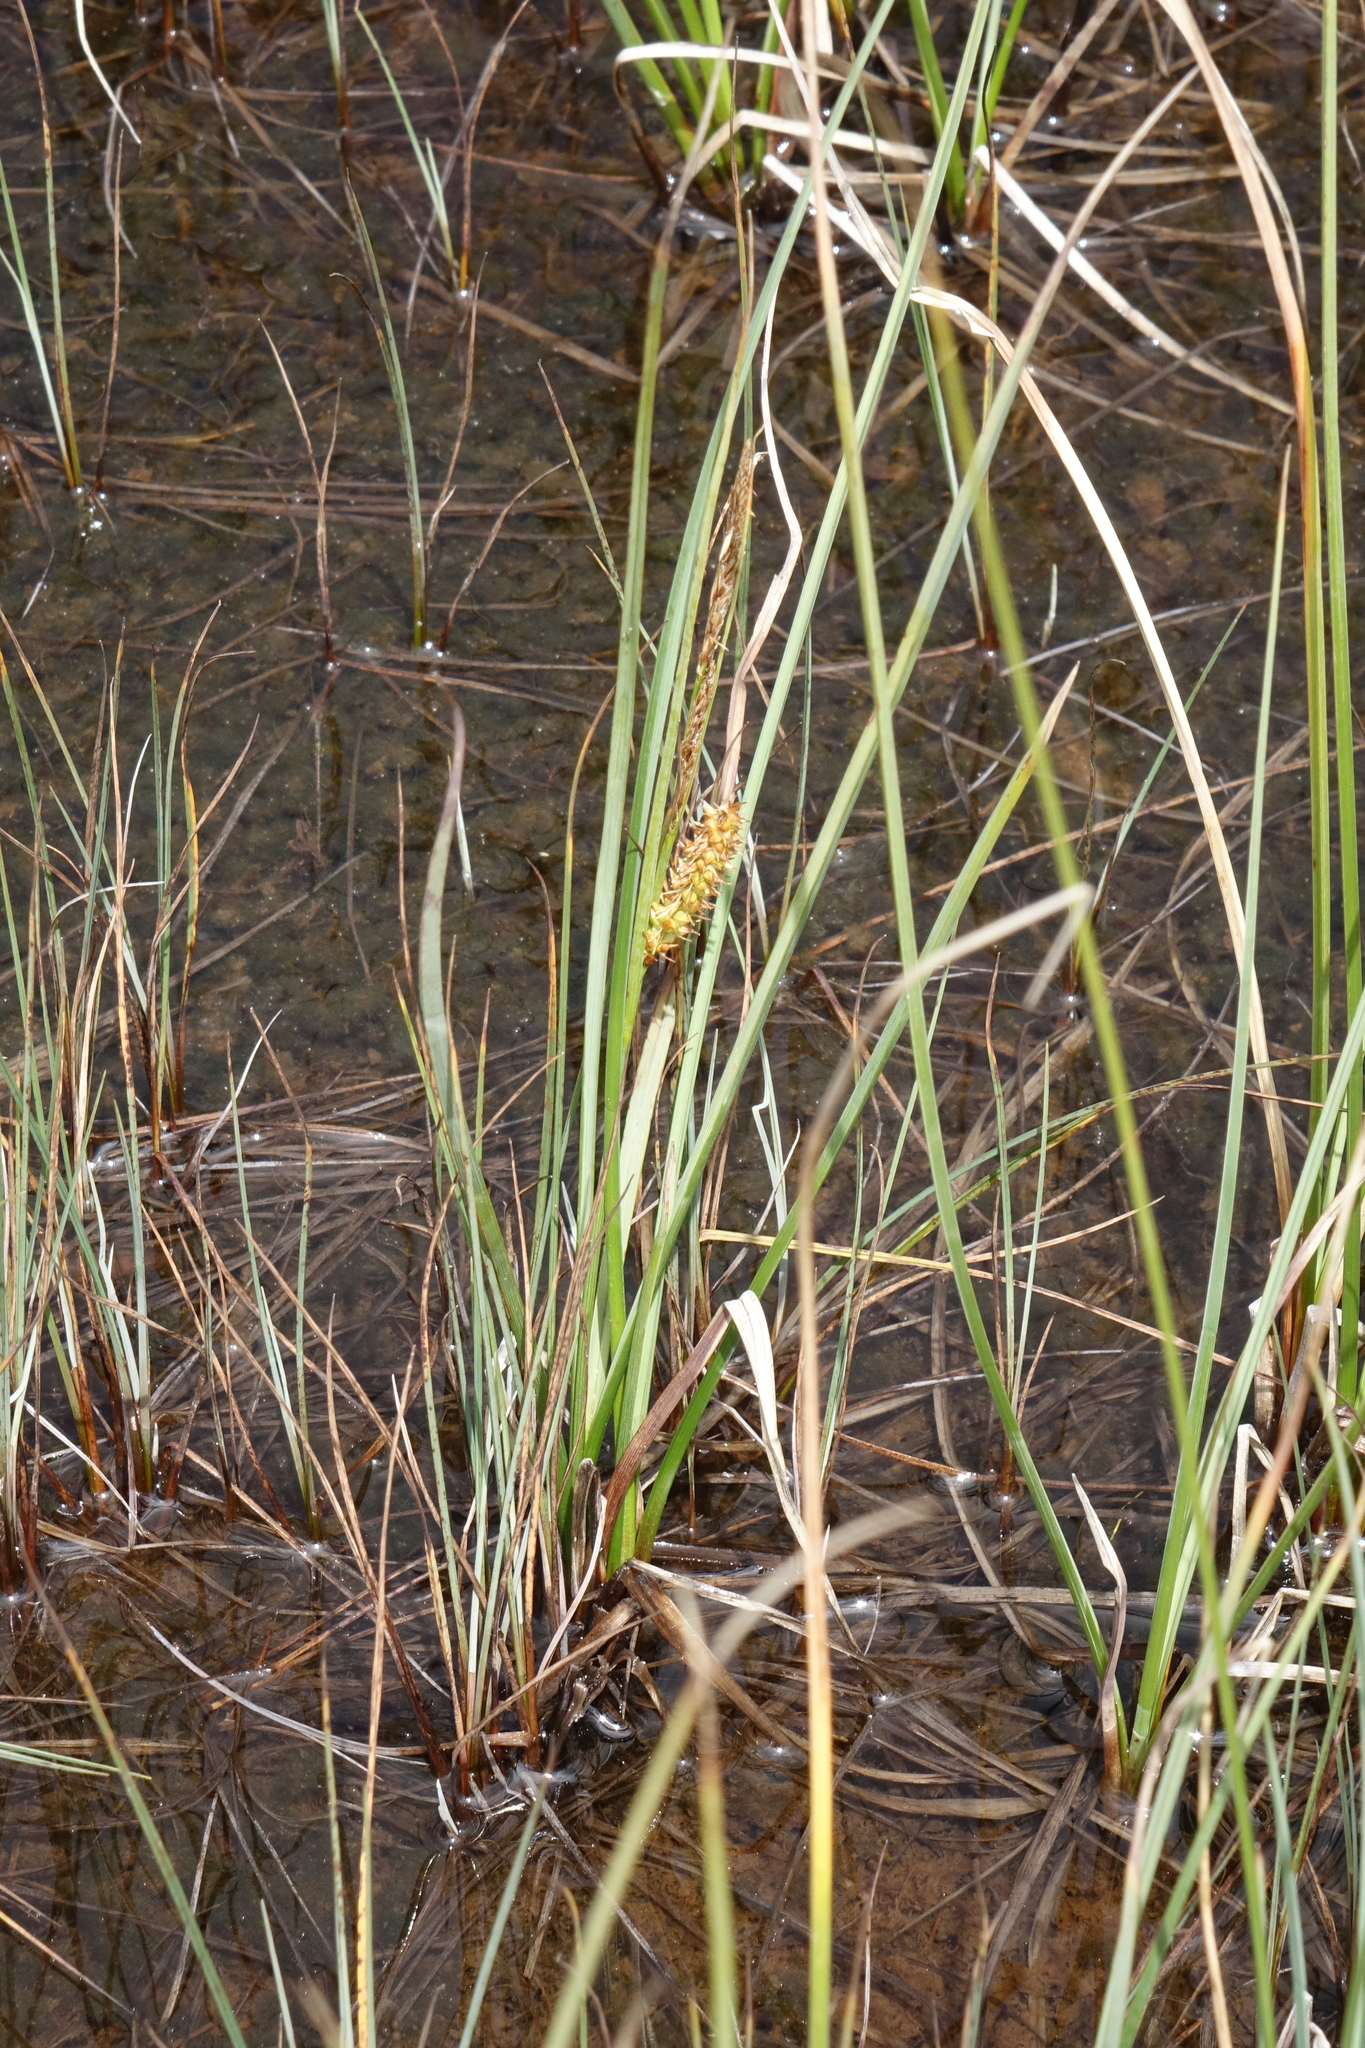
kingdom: Plantae
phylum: Tracheophyta
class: Liliopsida
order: Poales
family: Cyperaceae
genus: Carex
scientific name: Carex rostrata
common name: Bottle sedge
